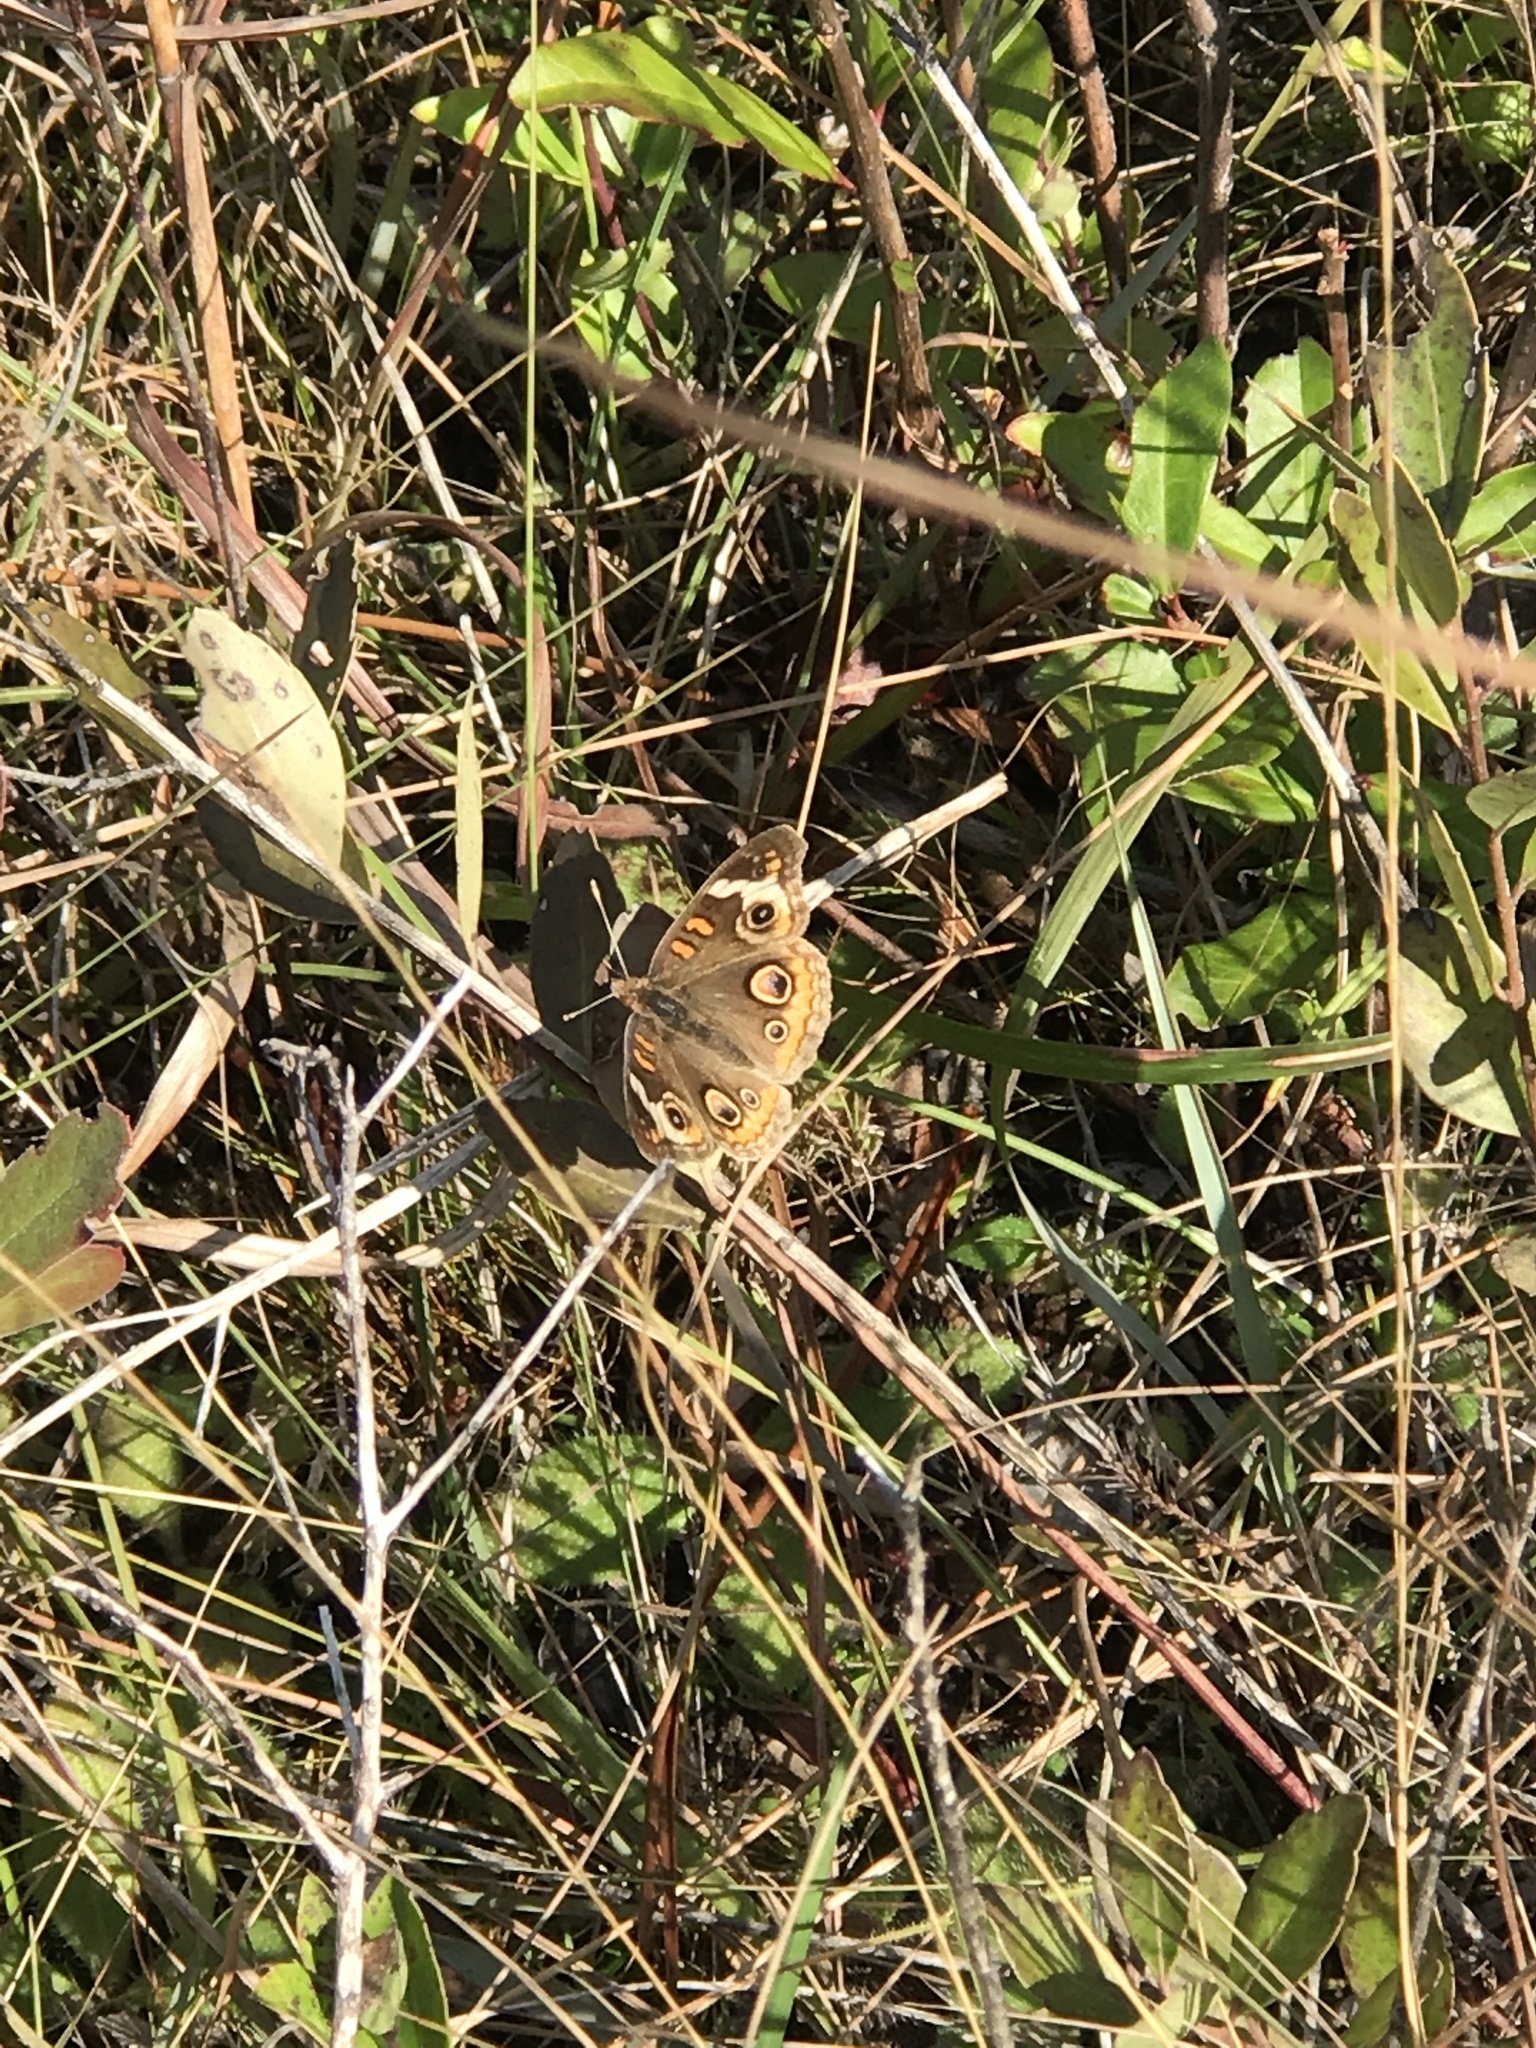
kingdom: Animalia
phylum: Arthropoda
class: Insecta
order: Lepidoptera
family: Nymphalidae
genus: Junonia
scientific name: Junonia coenia
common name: Common buckeye
